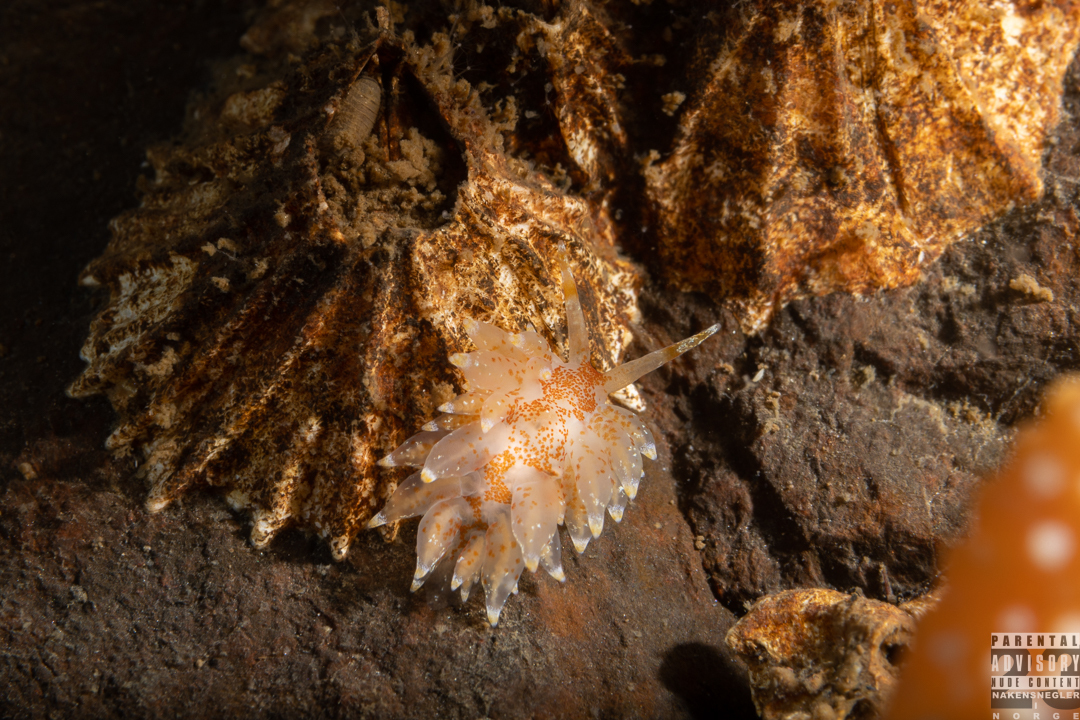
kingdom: Animalia
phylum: Mollusca
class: Gastropoda
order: Nudibranchia
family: Eubranchidae
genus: Amphorina
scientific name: Amphorina pallida
